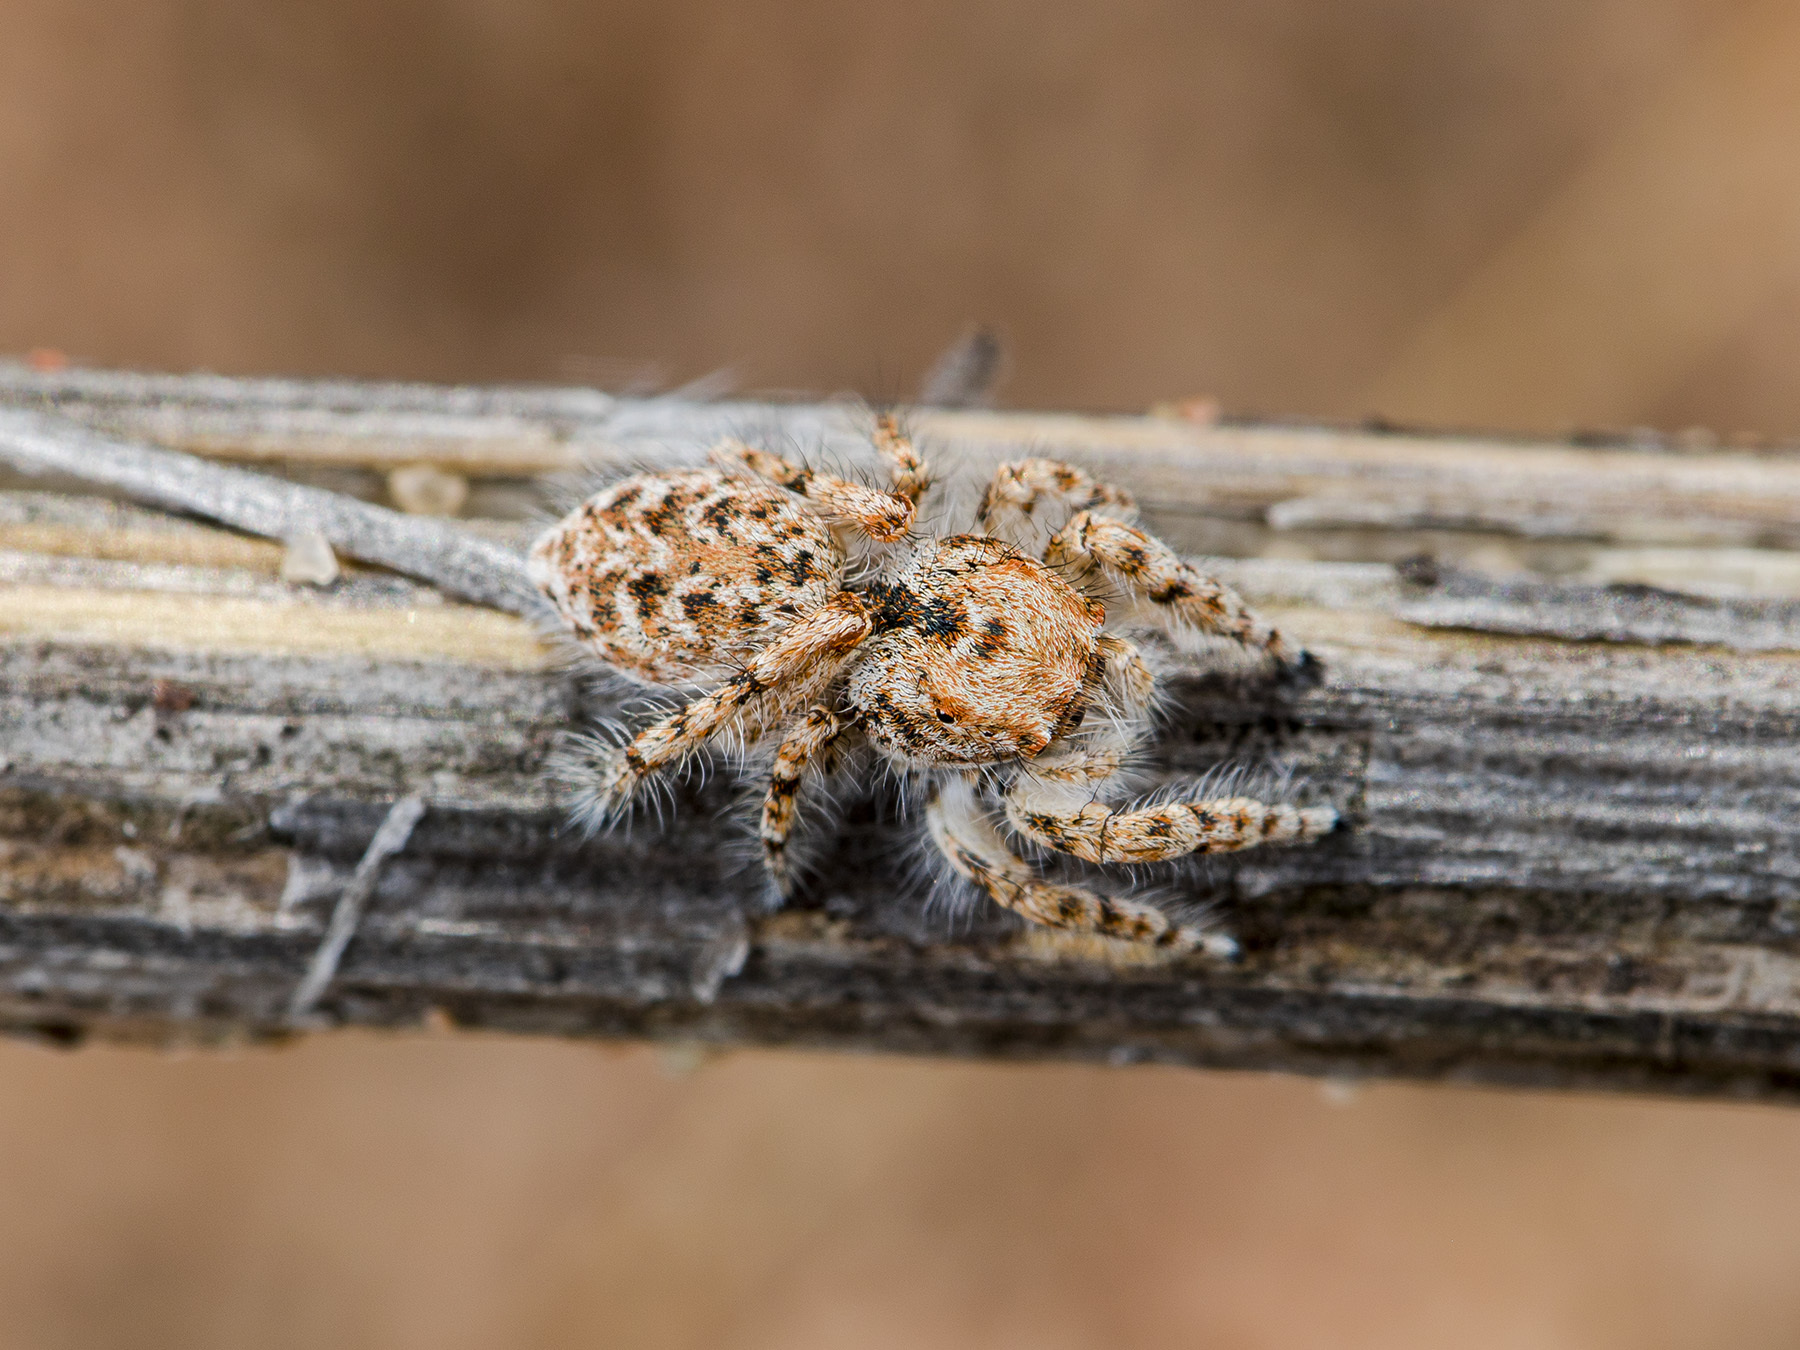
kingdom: Animalia
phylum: Arthropoda
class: Arachnida
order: Araneae
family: Salticidae
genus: Yllenus
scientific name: Yllenus uiguricus
